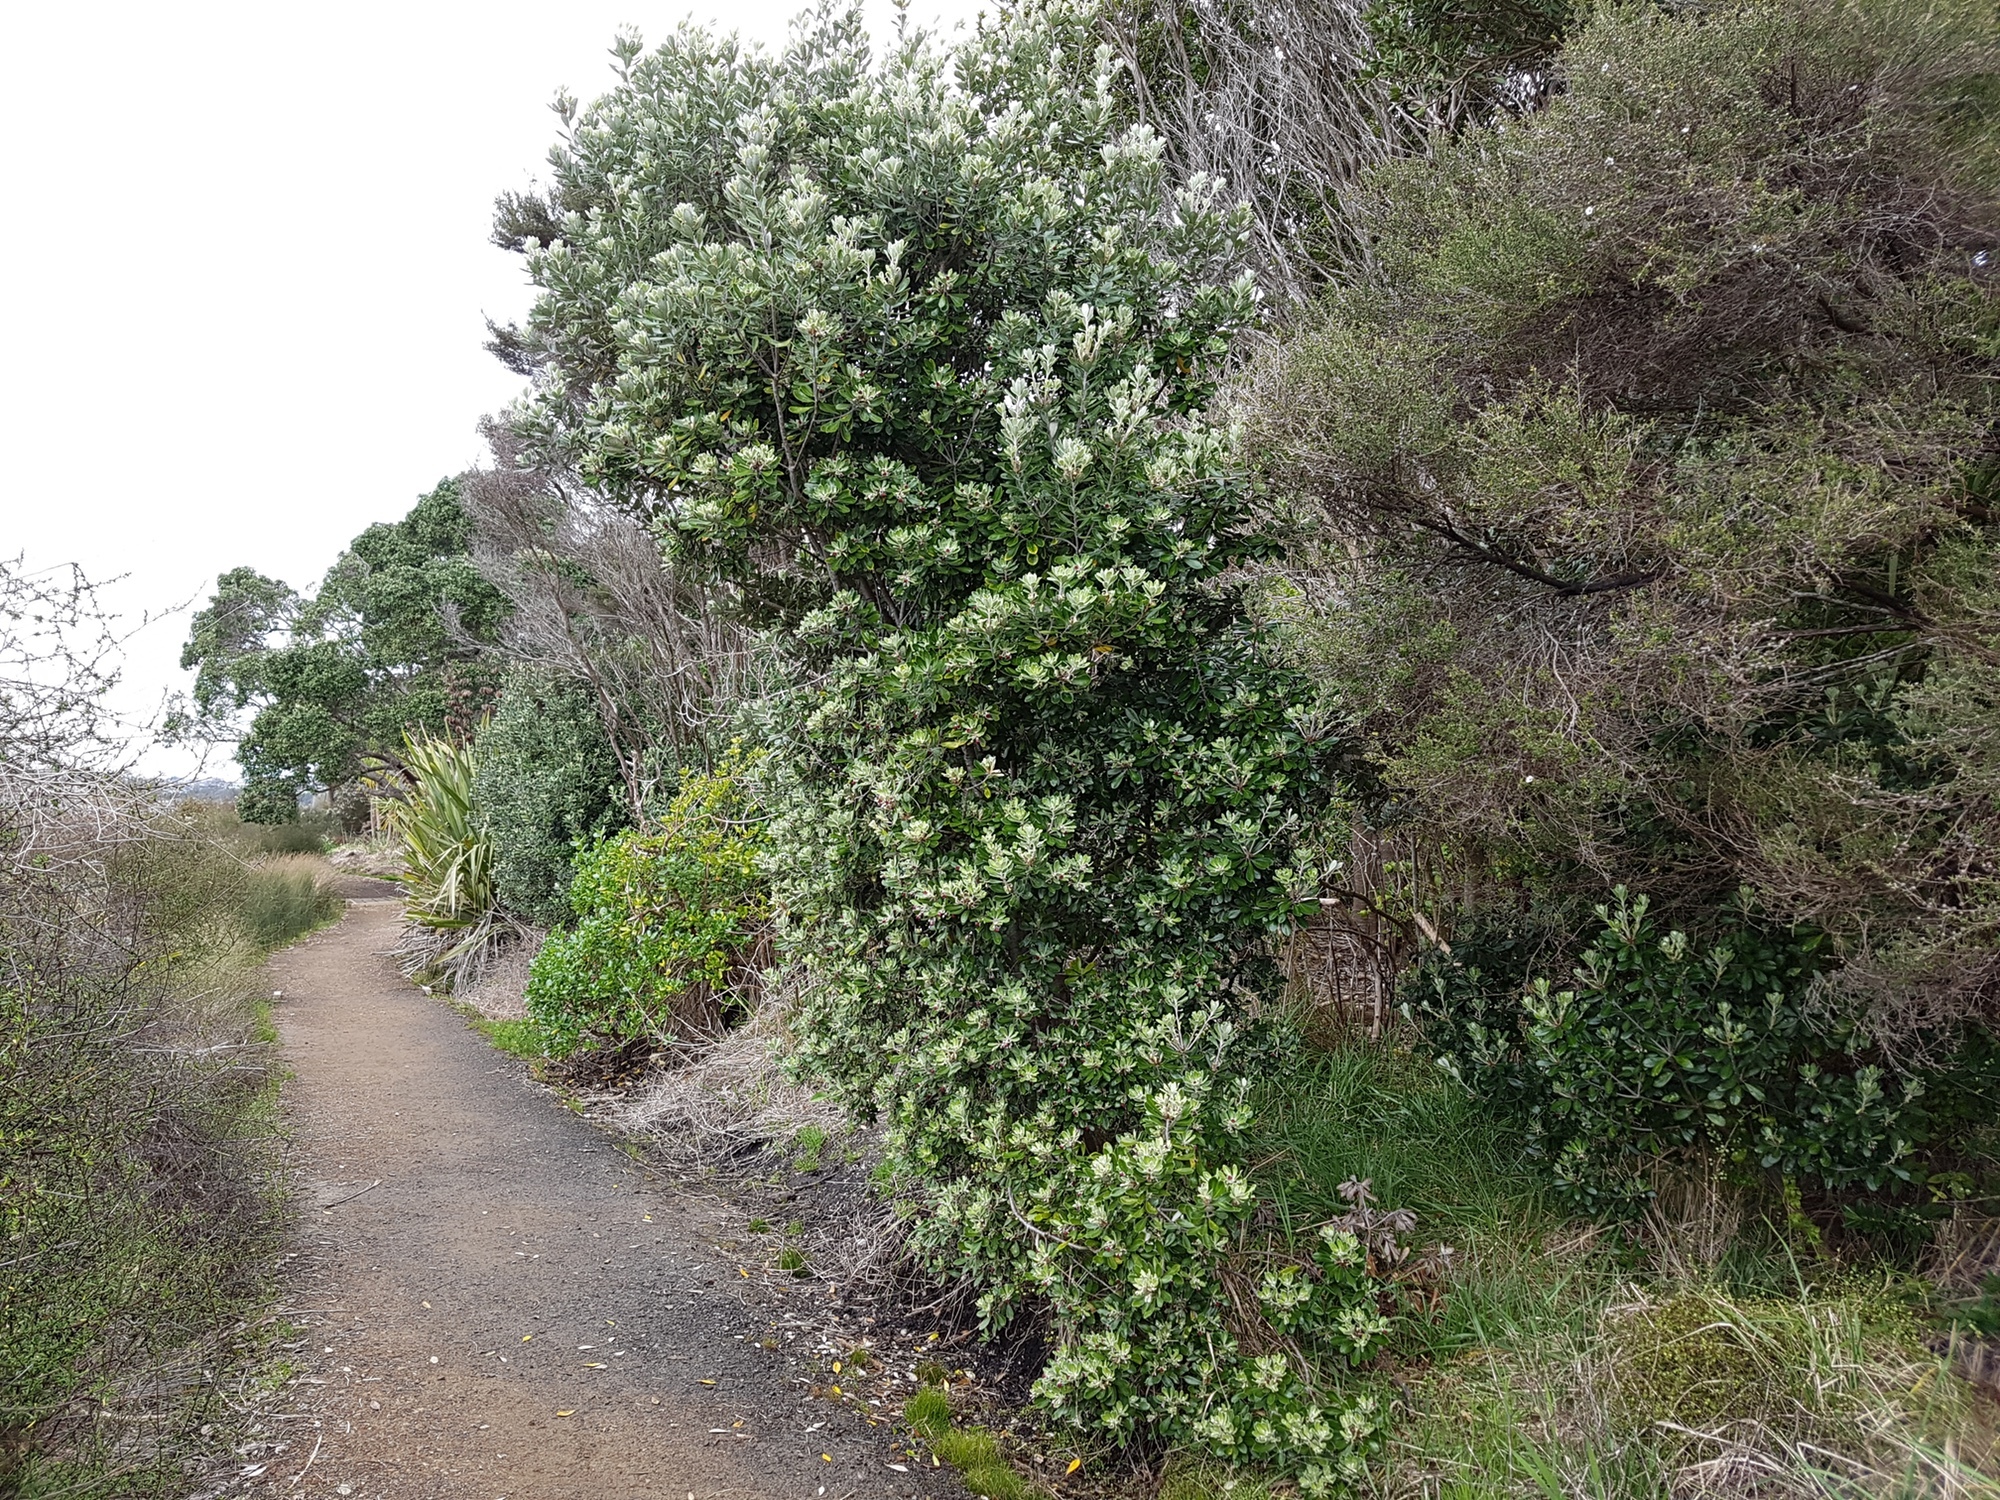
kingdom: Plantae
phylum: Tracheophyta
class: Magnoliopsida
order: Apiales
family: Pittosporaceae
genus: Pittosporum
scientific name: Pittosporum crassifolium
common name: Karo
